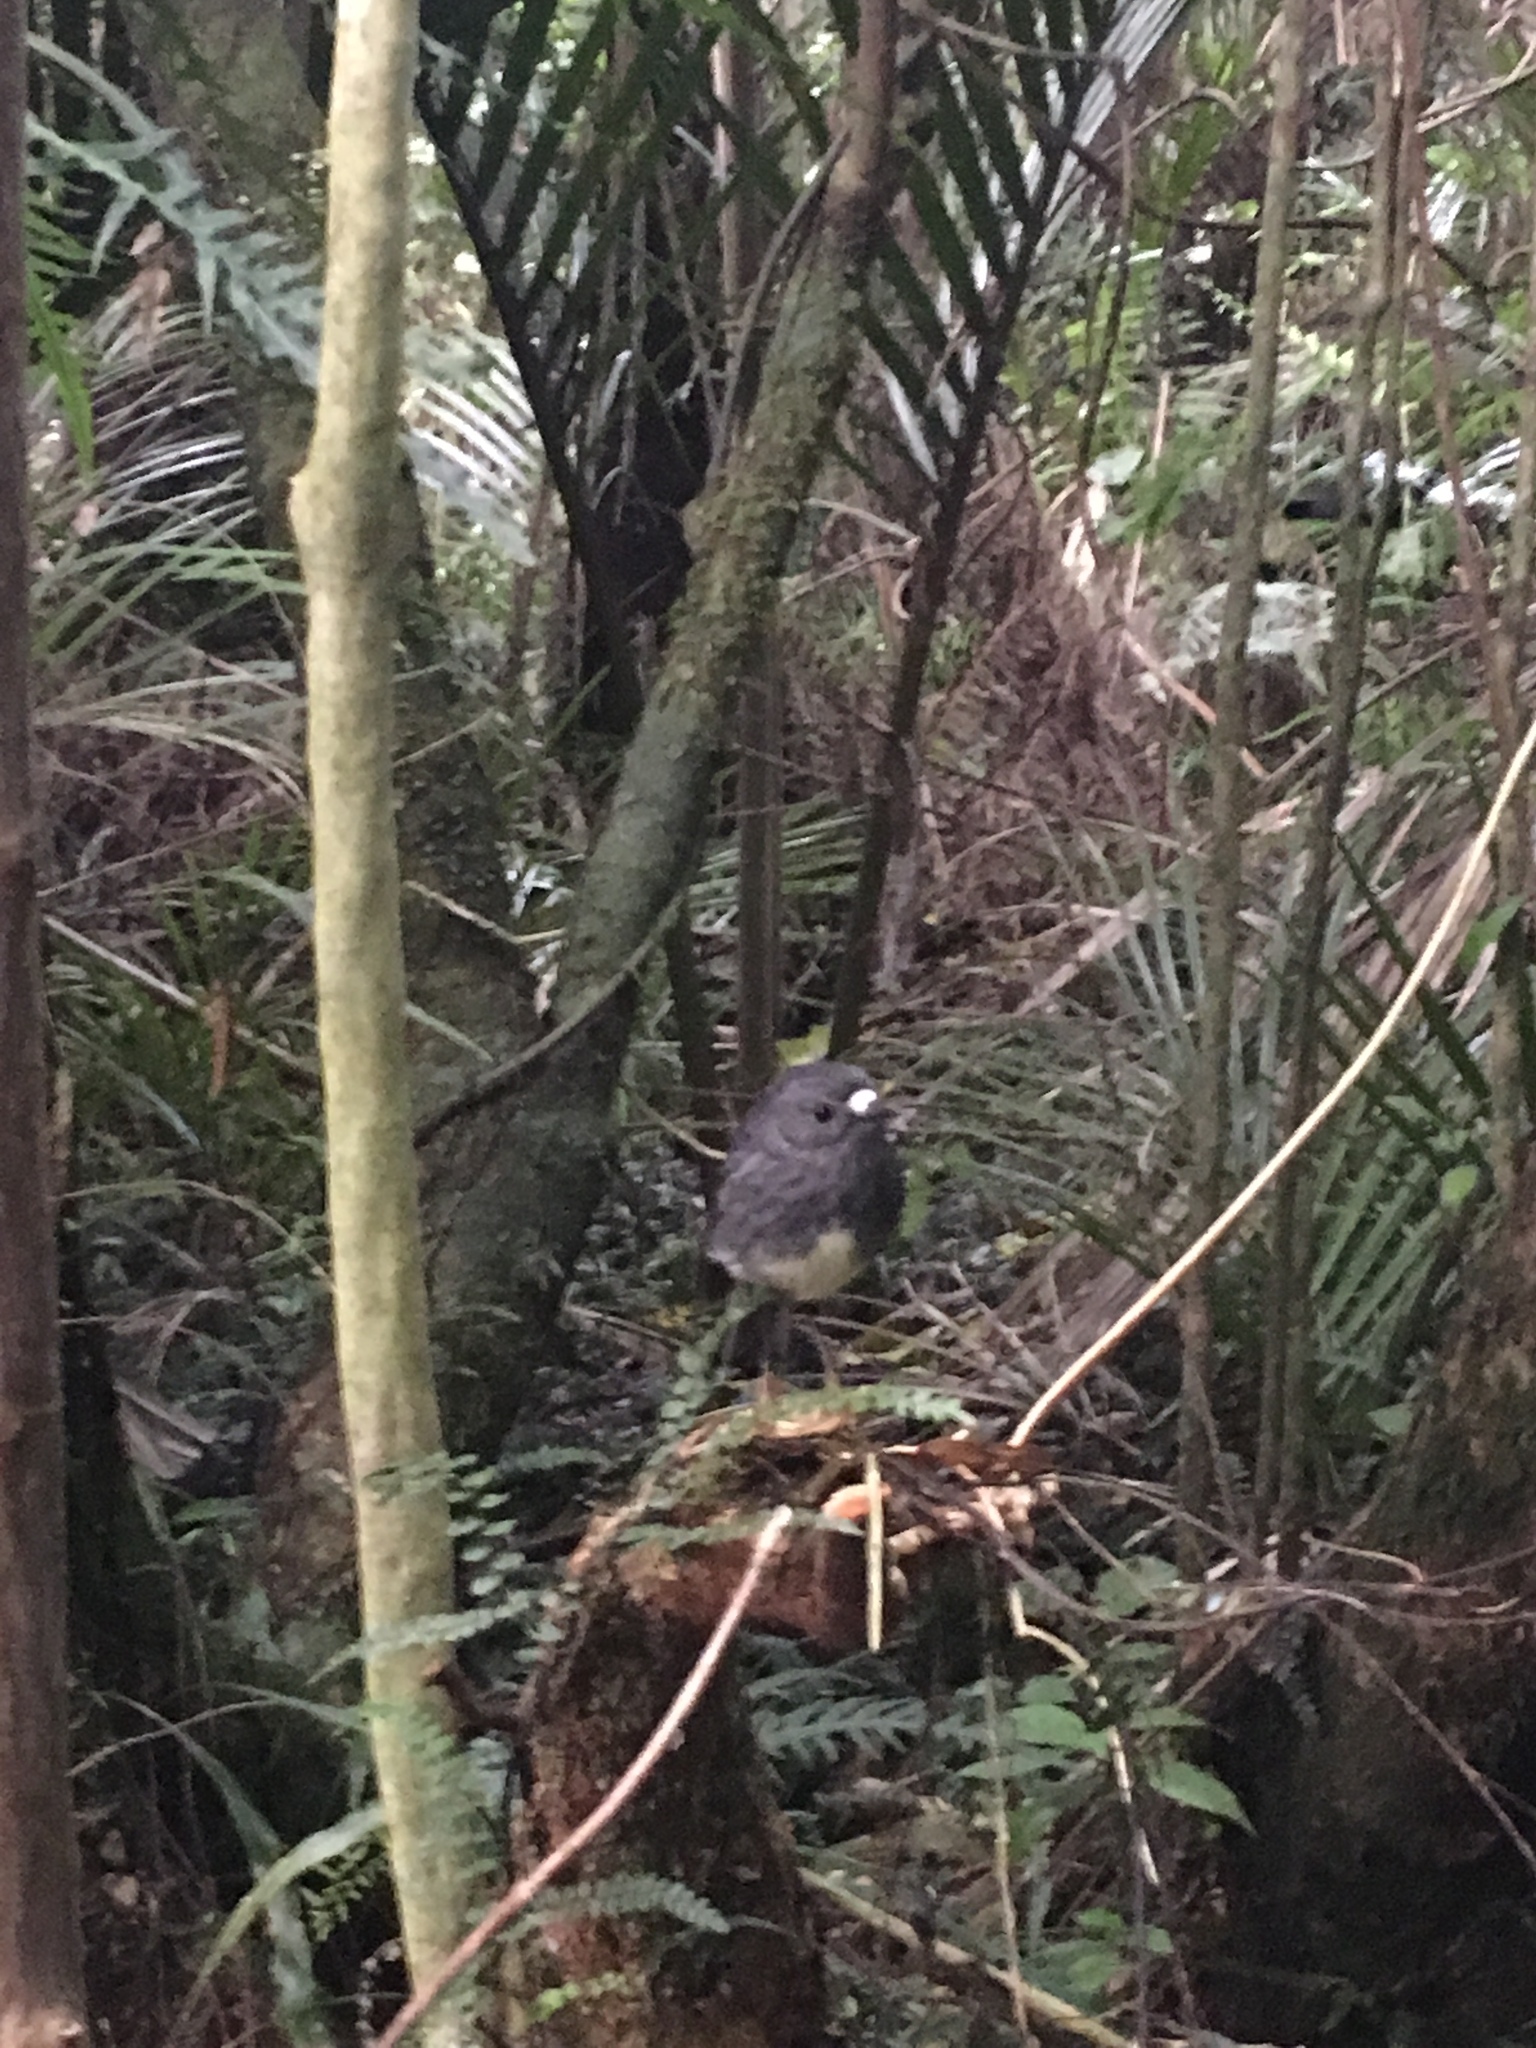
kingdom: Animalia
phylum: Chordata
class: Aves
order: Passeriformes
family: Petroicidae
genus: Petroica
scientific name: Petroica australis
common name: New zealand robin
